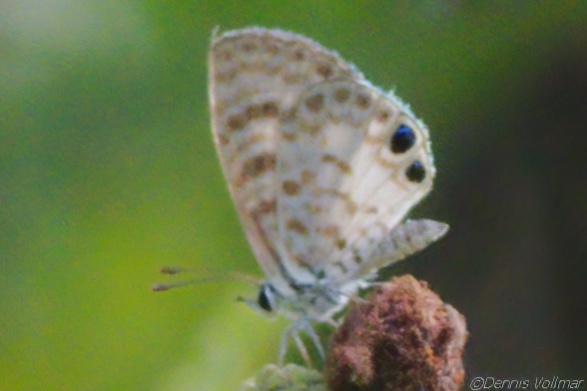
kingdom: Animalia
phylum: Arthropoda
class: Insecta
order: Lepidoptera
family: Lycaenidae
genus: Leptotes
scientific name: Leptotes cassius
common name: Cassius blue
